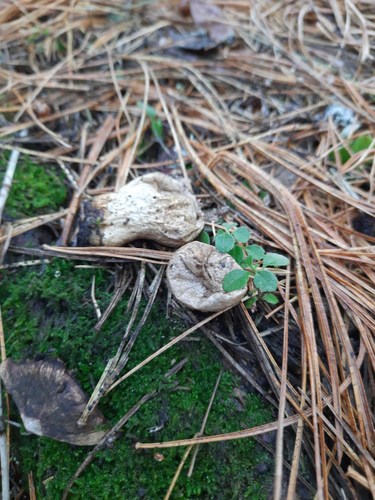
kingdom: Fungi
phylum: Basidiomycota
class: Agaricomycetes
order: Agaricales
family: Lycoperdaceae
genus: Lycoperdon
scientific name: Lycoperdon perlatum
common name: Common puffball
